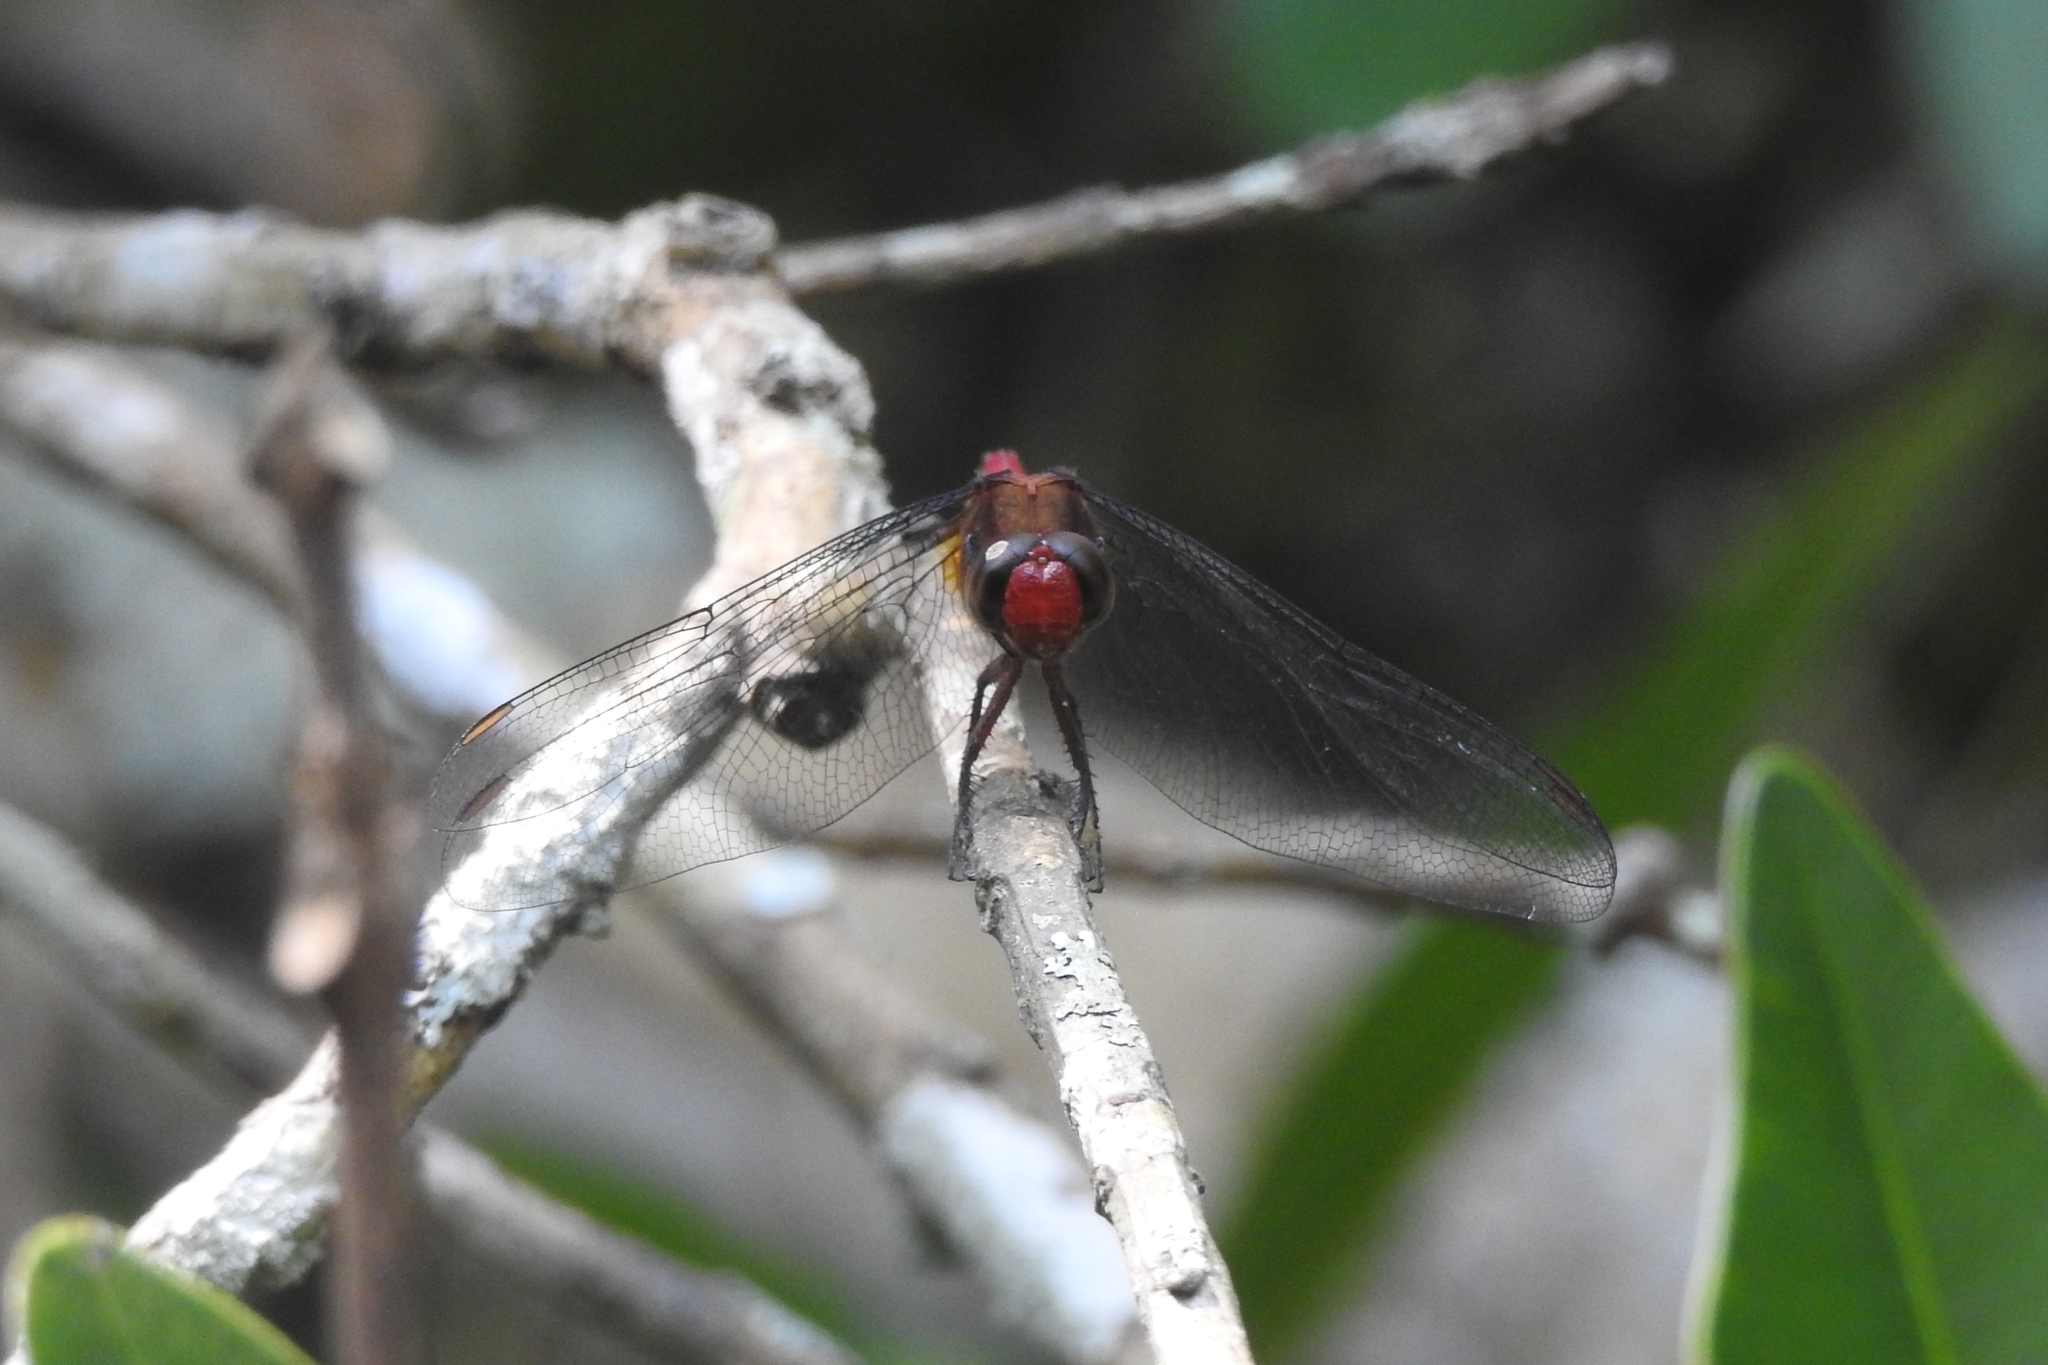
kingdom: Animalia
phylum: Arthropoda
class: Insecta
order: Odonata
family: Libellulidae
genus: Orthetrum
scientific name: Orthetrum chrysis
